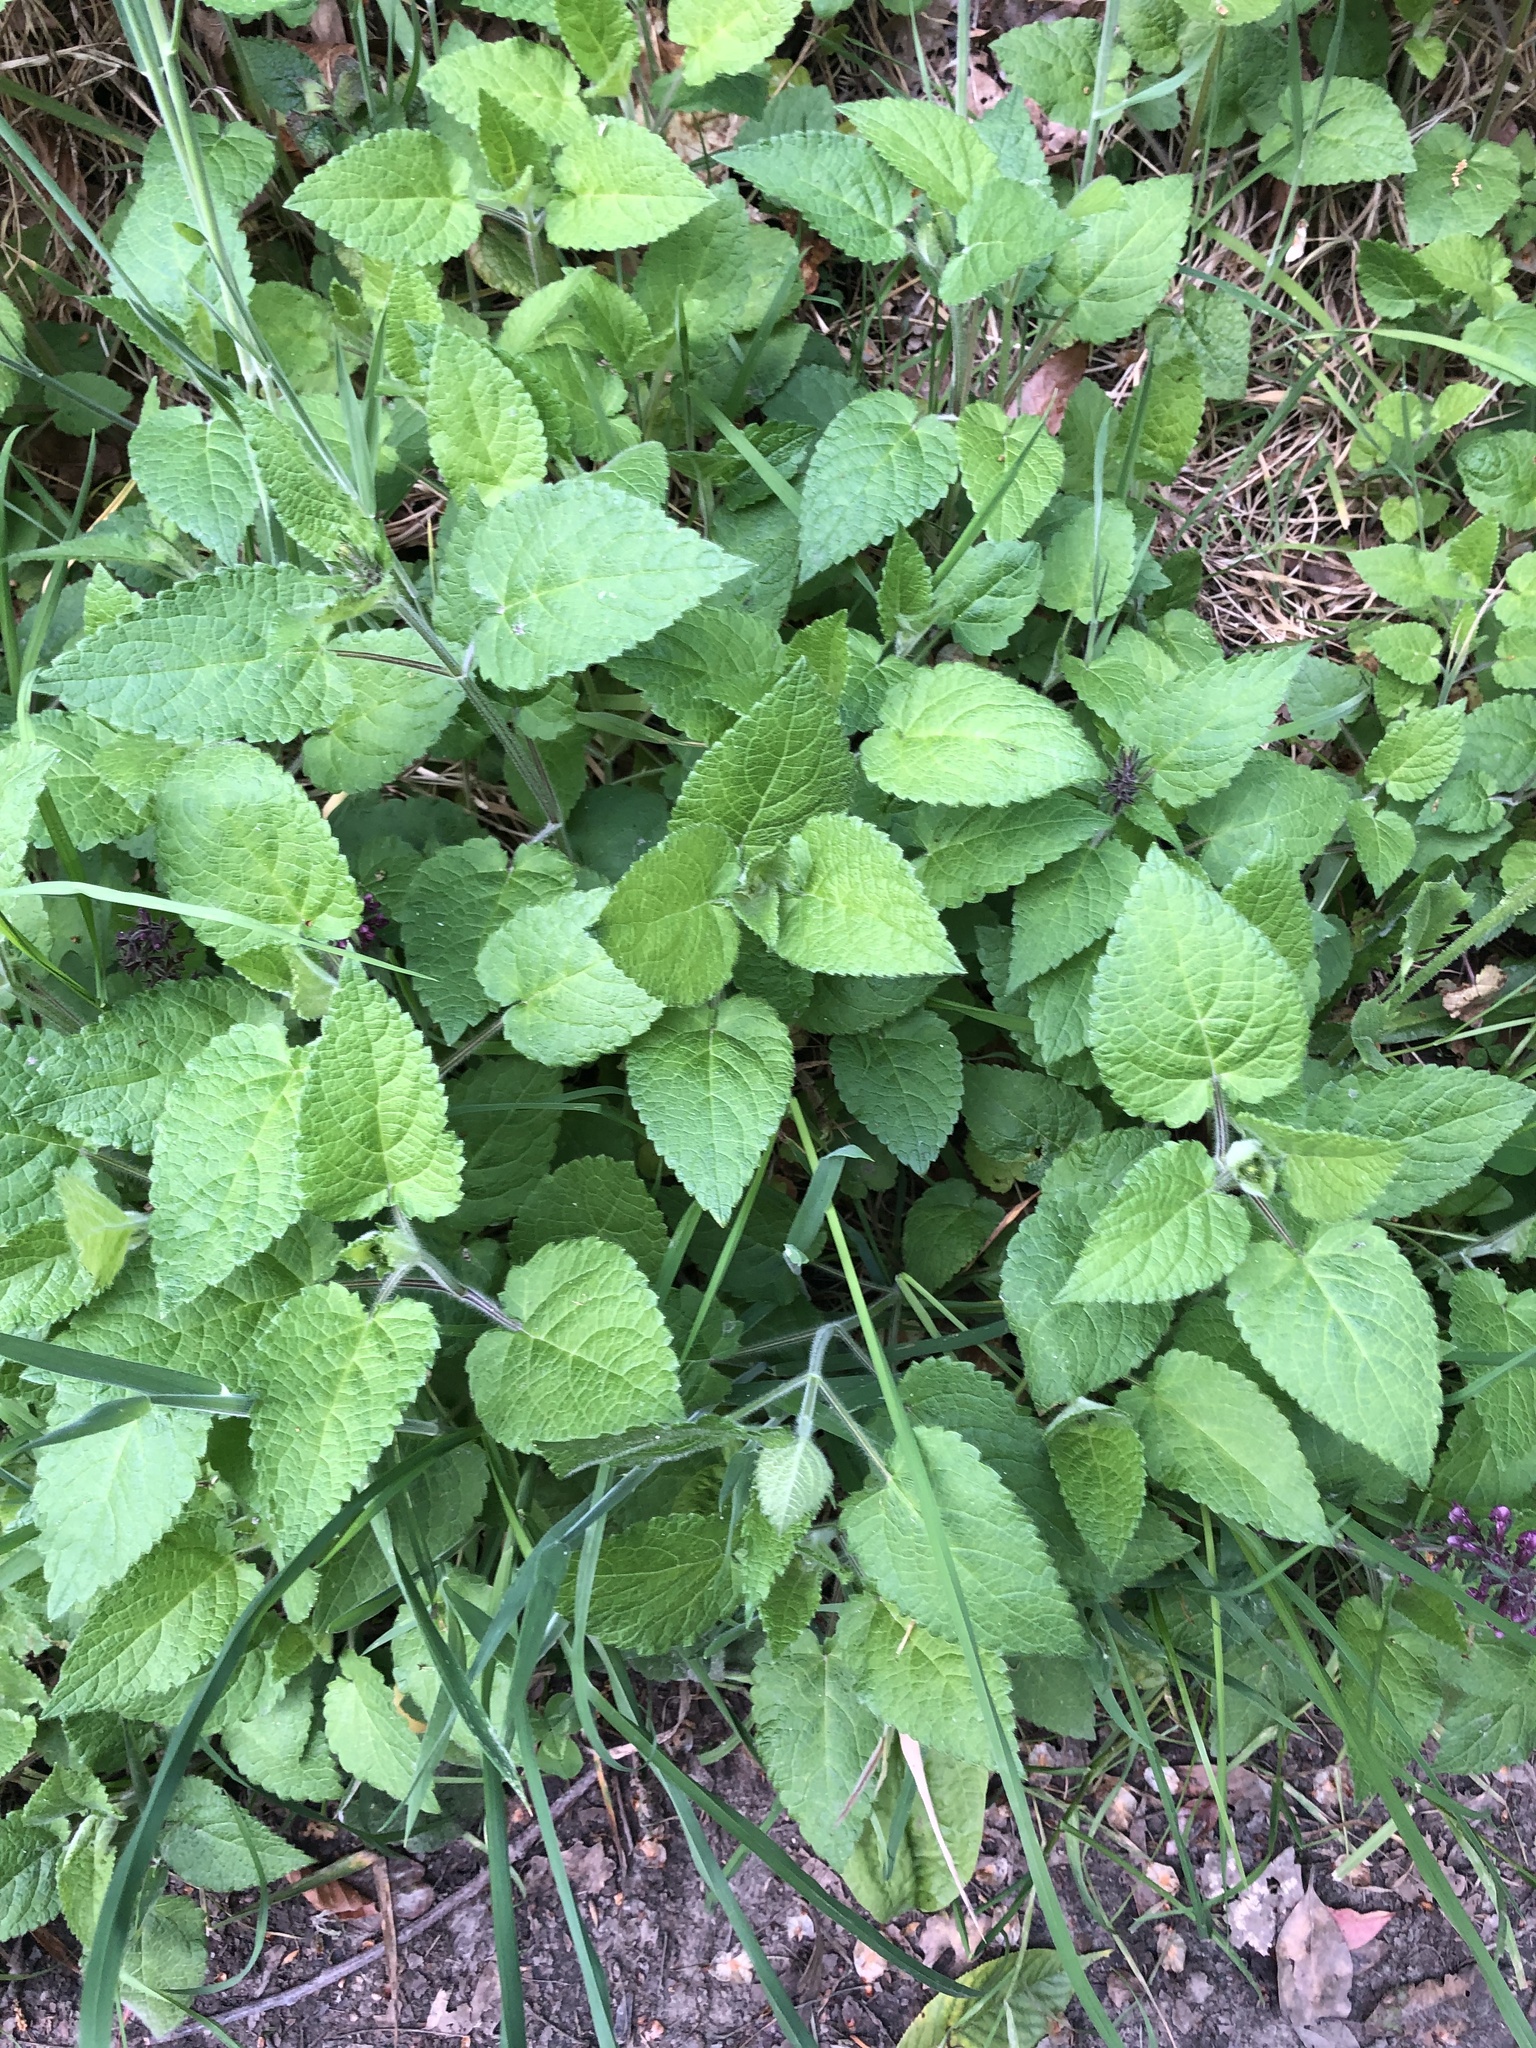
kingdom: Plantae
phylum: Tracheophyta
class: Magnoliopsida
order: Lamiales
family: Lamiaceae
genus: Stachys
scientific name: Stachys sylvatica
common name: Hedge woundwort
